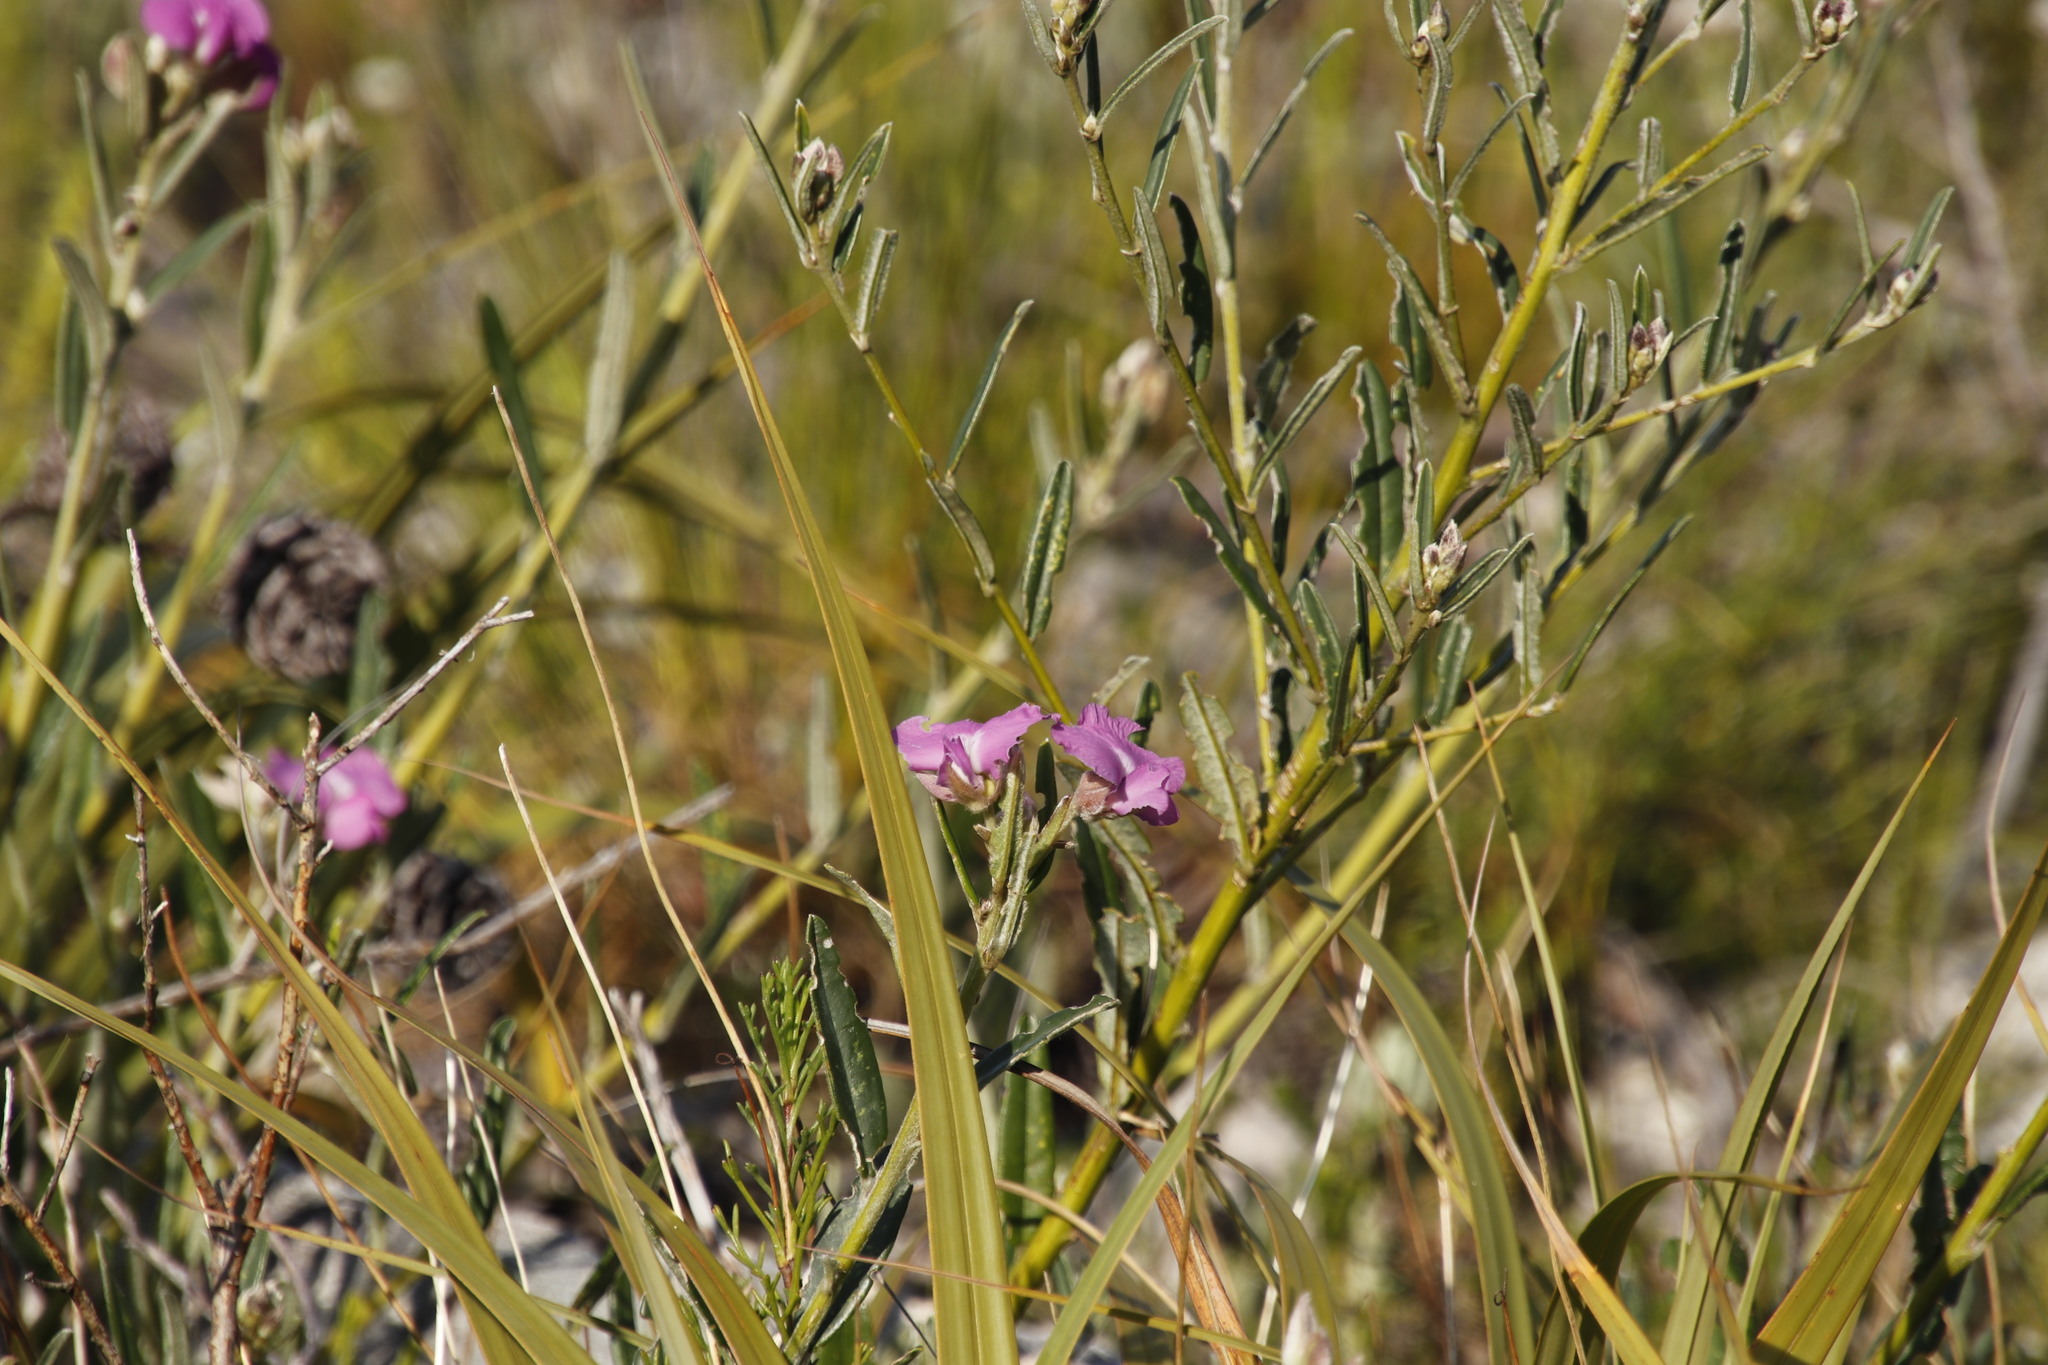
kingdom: Plantae
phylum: Tracheophyta
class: Magnoliopsida
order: Fabales
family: Fabaceae
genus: Podalyria
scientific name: Podalyria oleifolia
